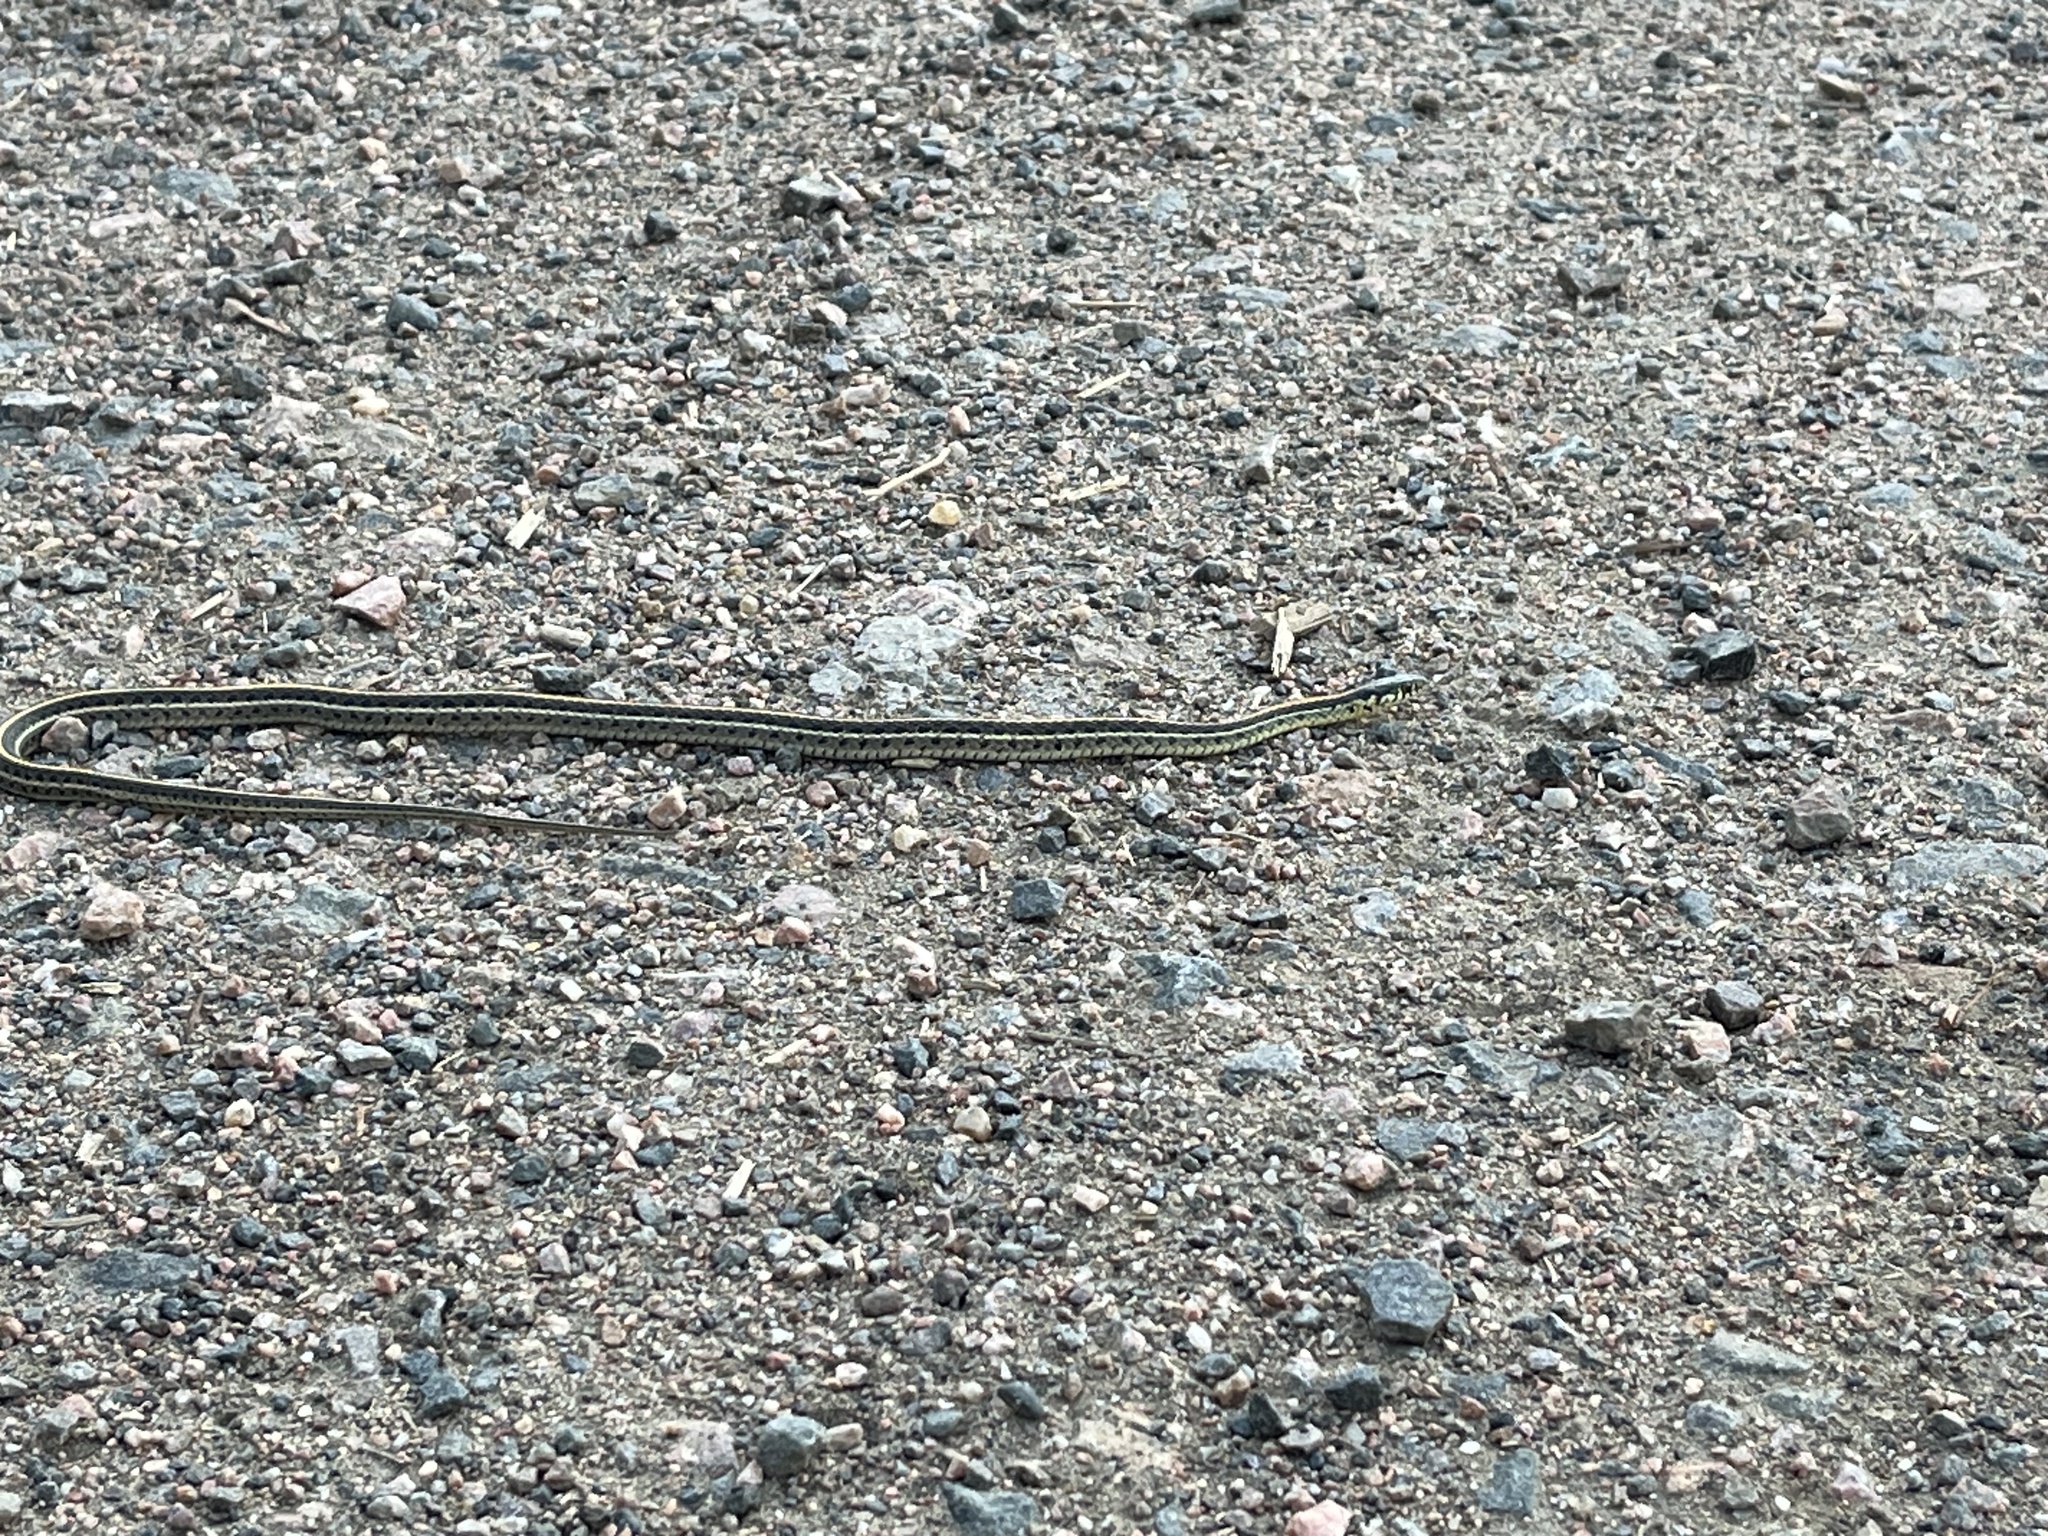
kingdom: Animalia
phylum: Chordata
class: Squamata
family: Colubridae
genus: Thamnophis
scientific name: Thamnophis radix
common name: Plains garter snake
